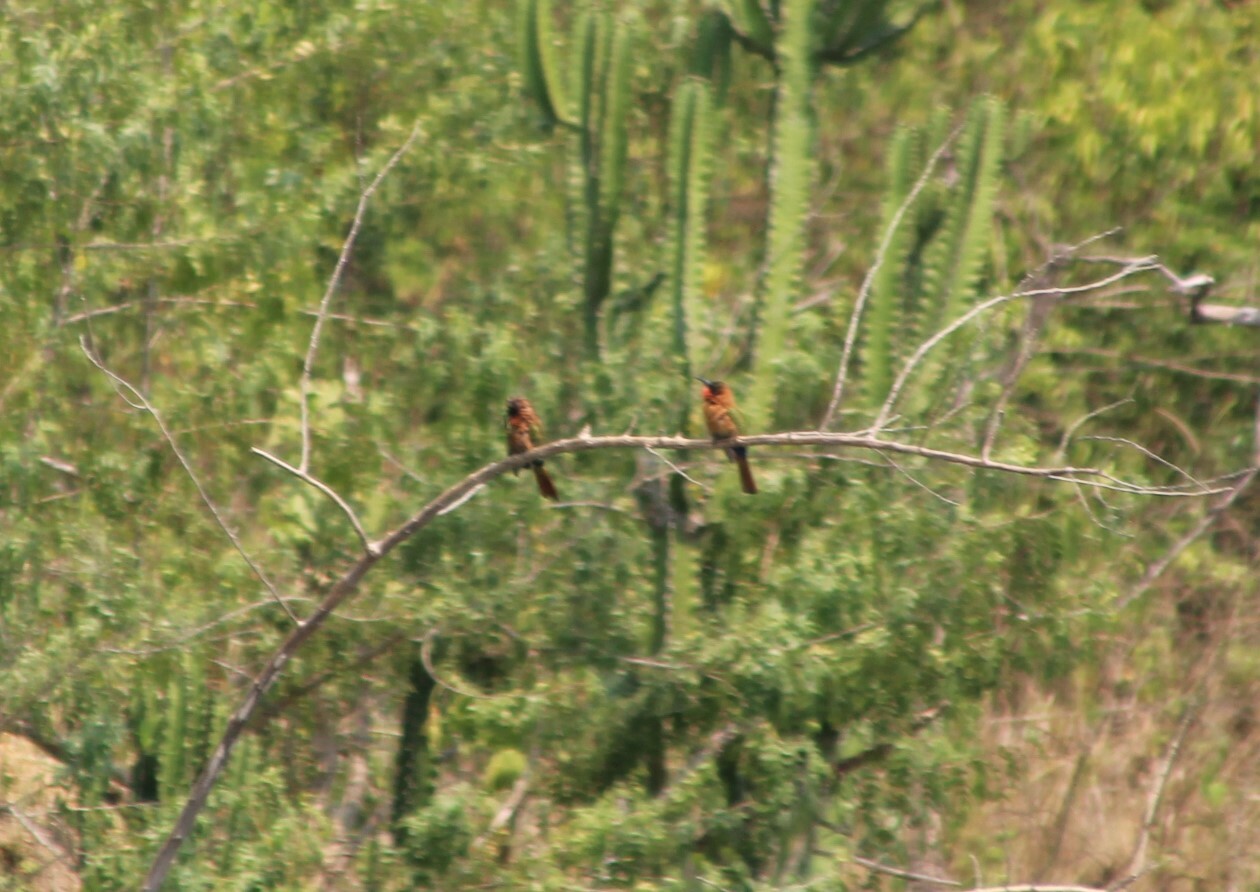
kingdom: Animalia
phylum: Chordata
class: Aves
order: Coraciiformes
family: Meropidae
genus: Merops
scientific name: Merops bulocki
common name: Red-throated bee-eater
